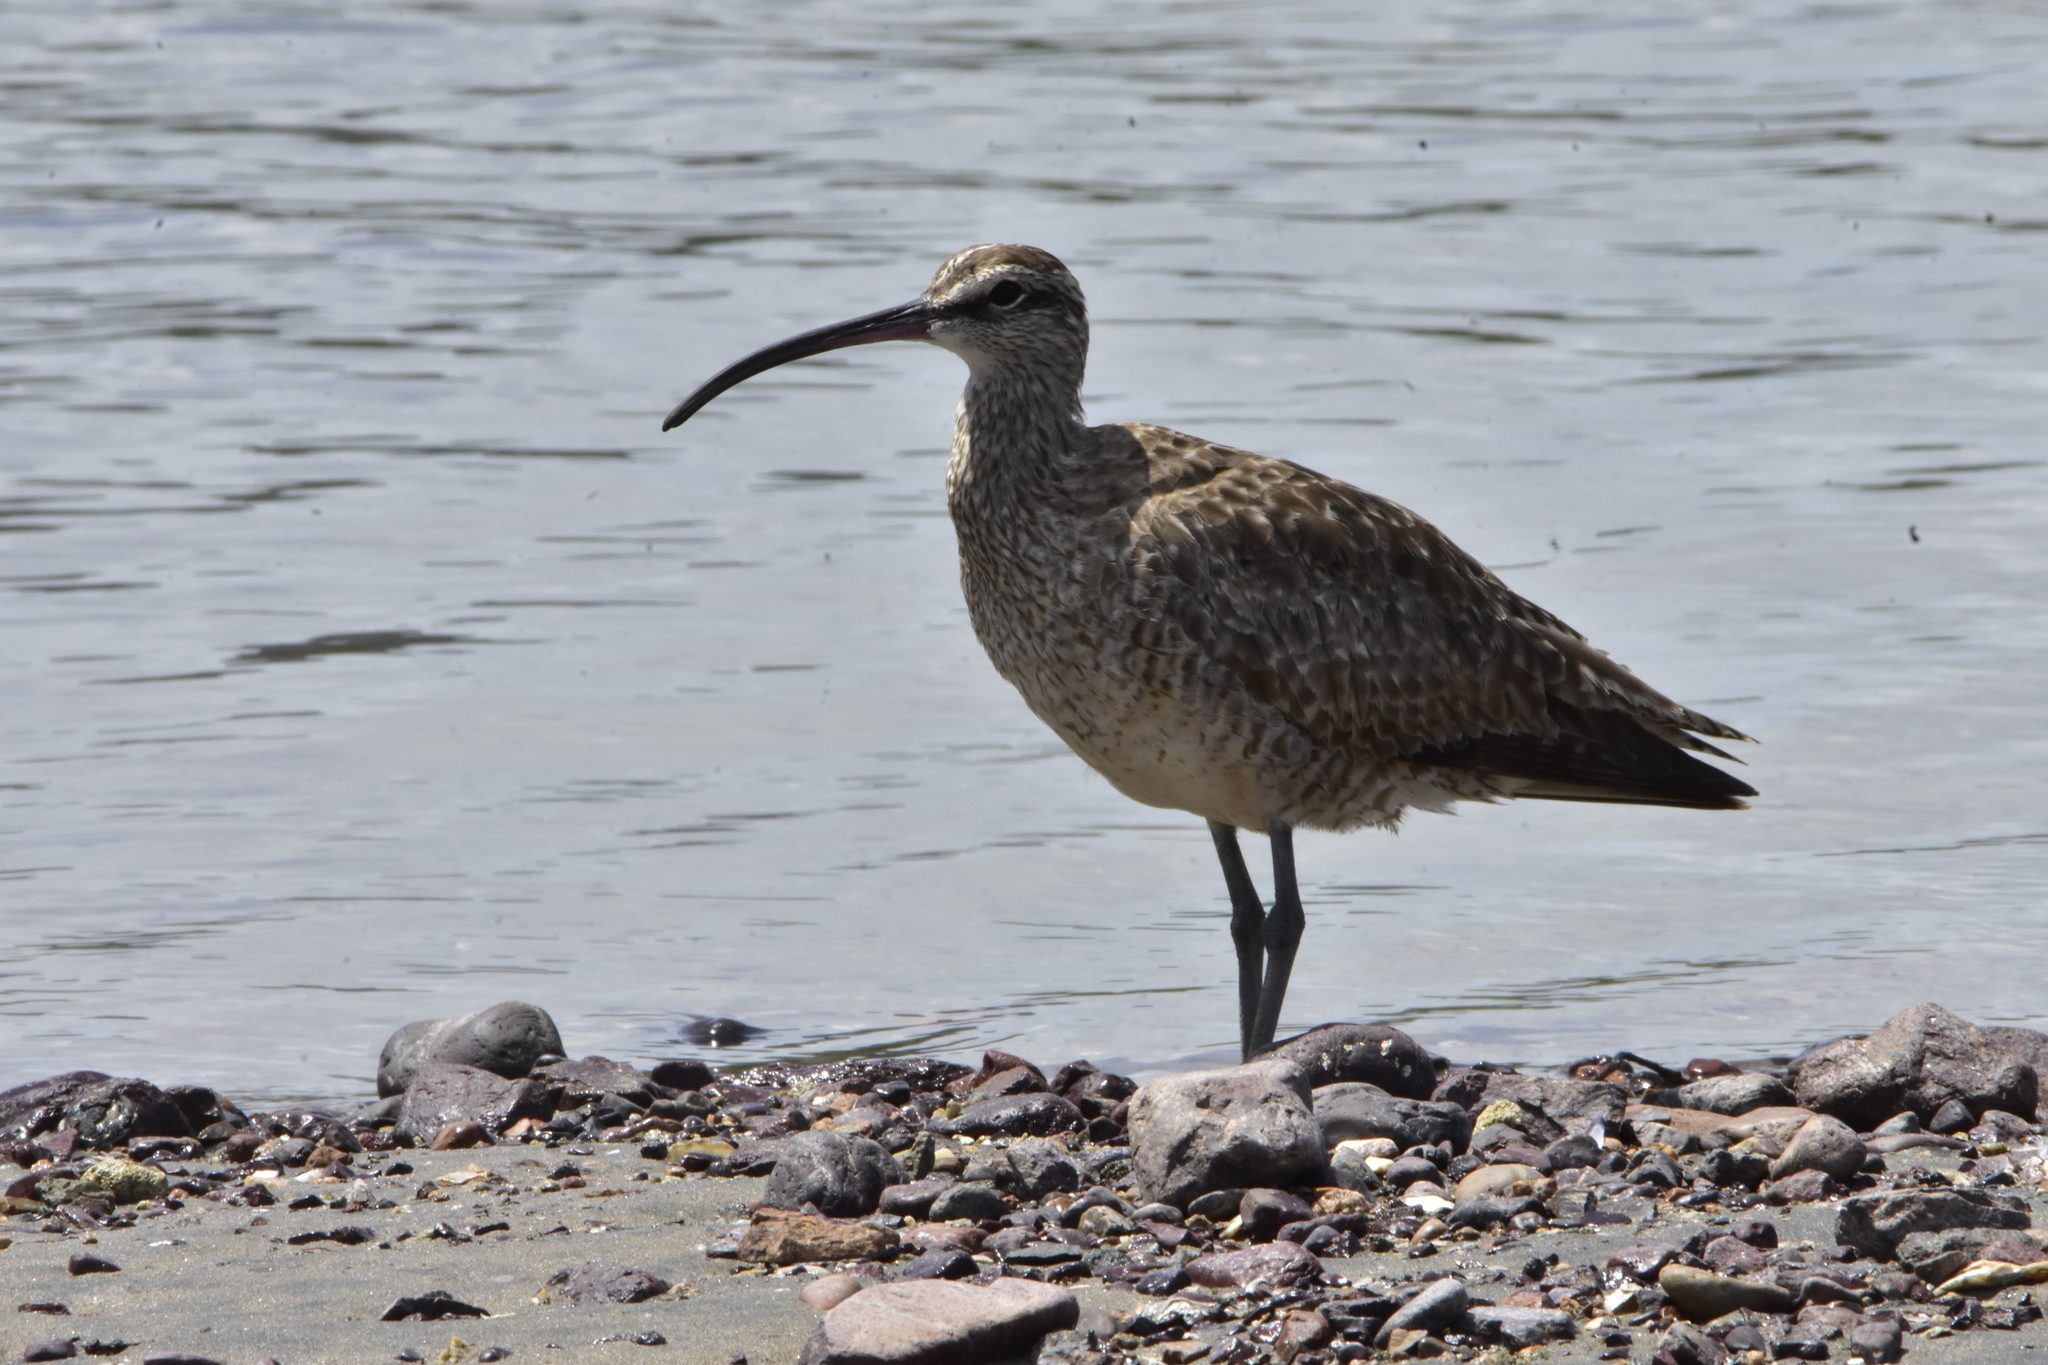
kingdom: Animalia
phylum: Chordata
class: Aves
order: Charadriiformes
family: Scolopacidae
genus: Numenius
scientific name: Numenius phaeopus
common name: Whimbrel
